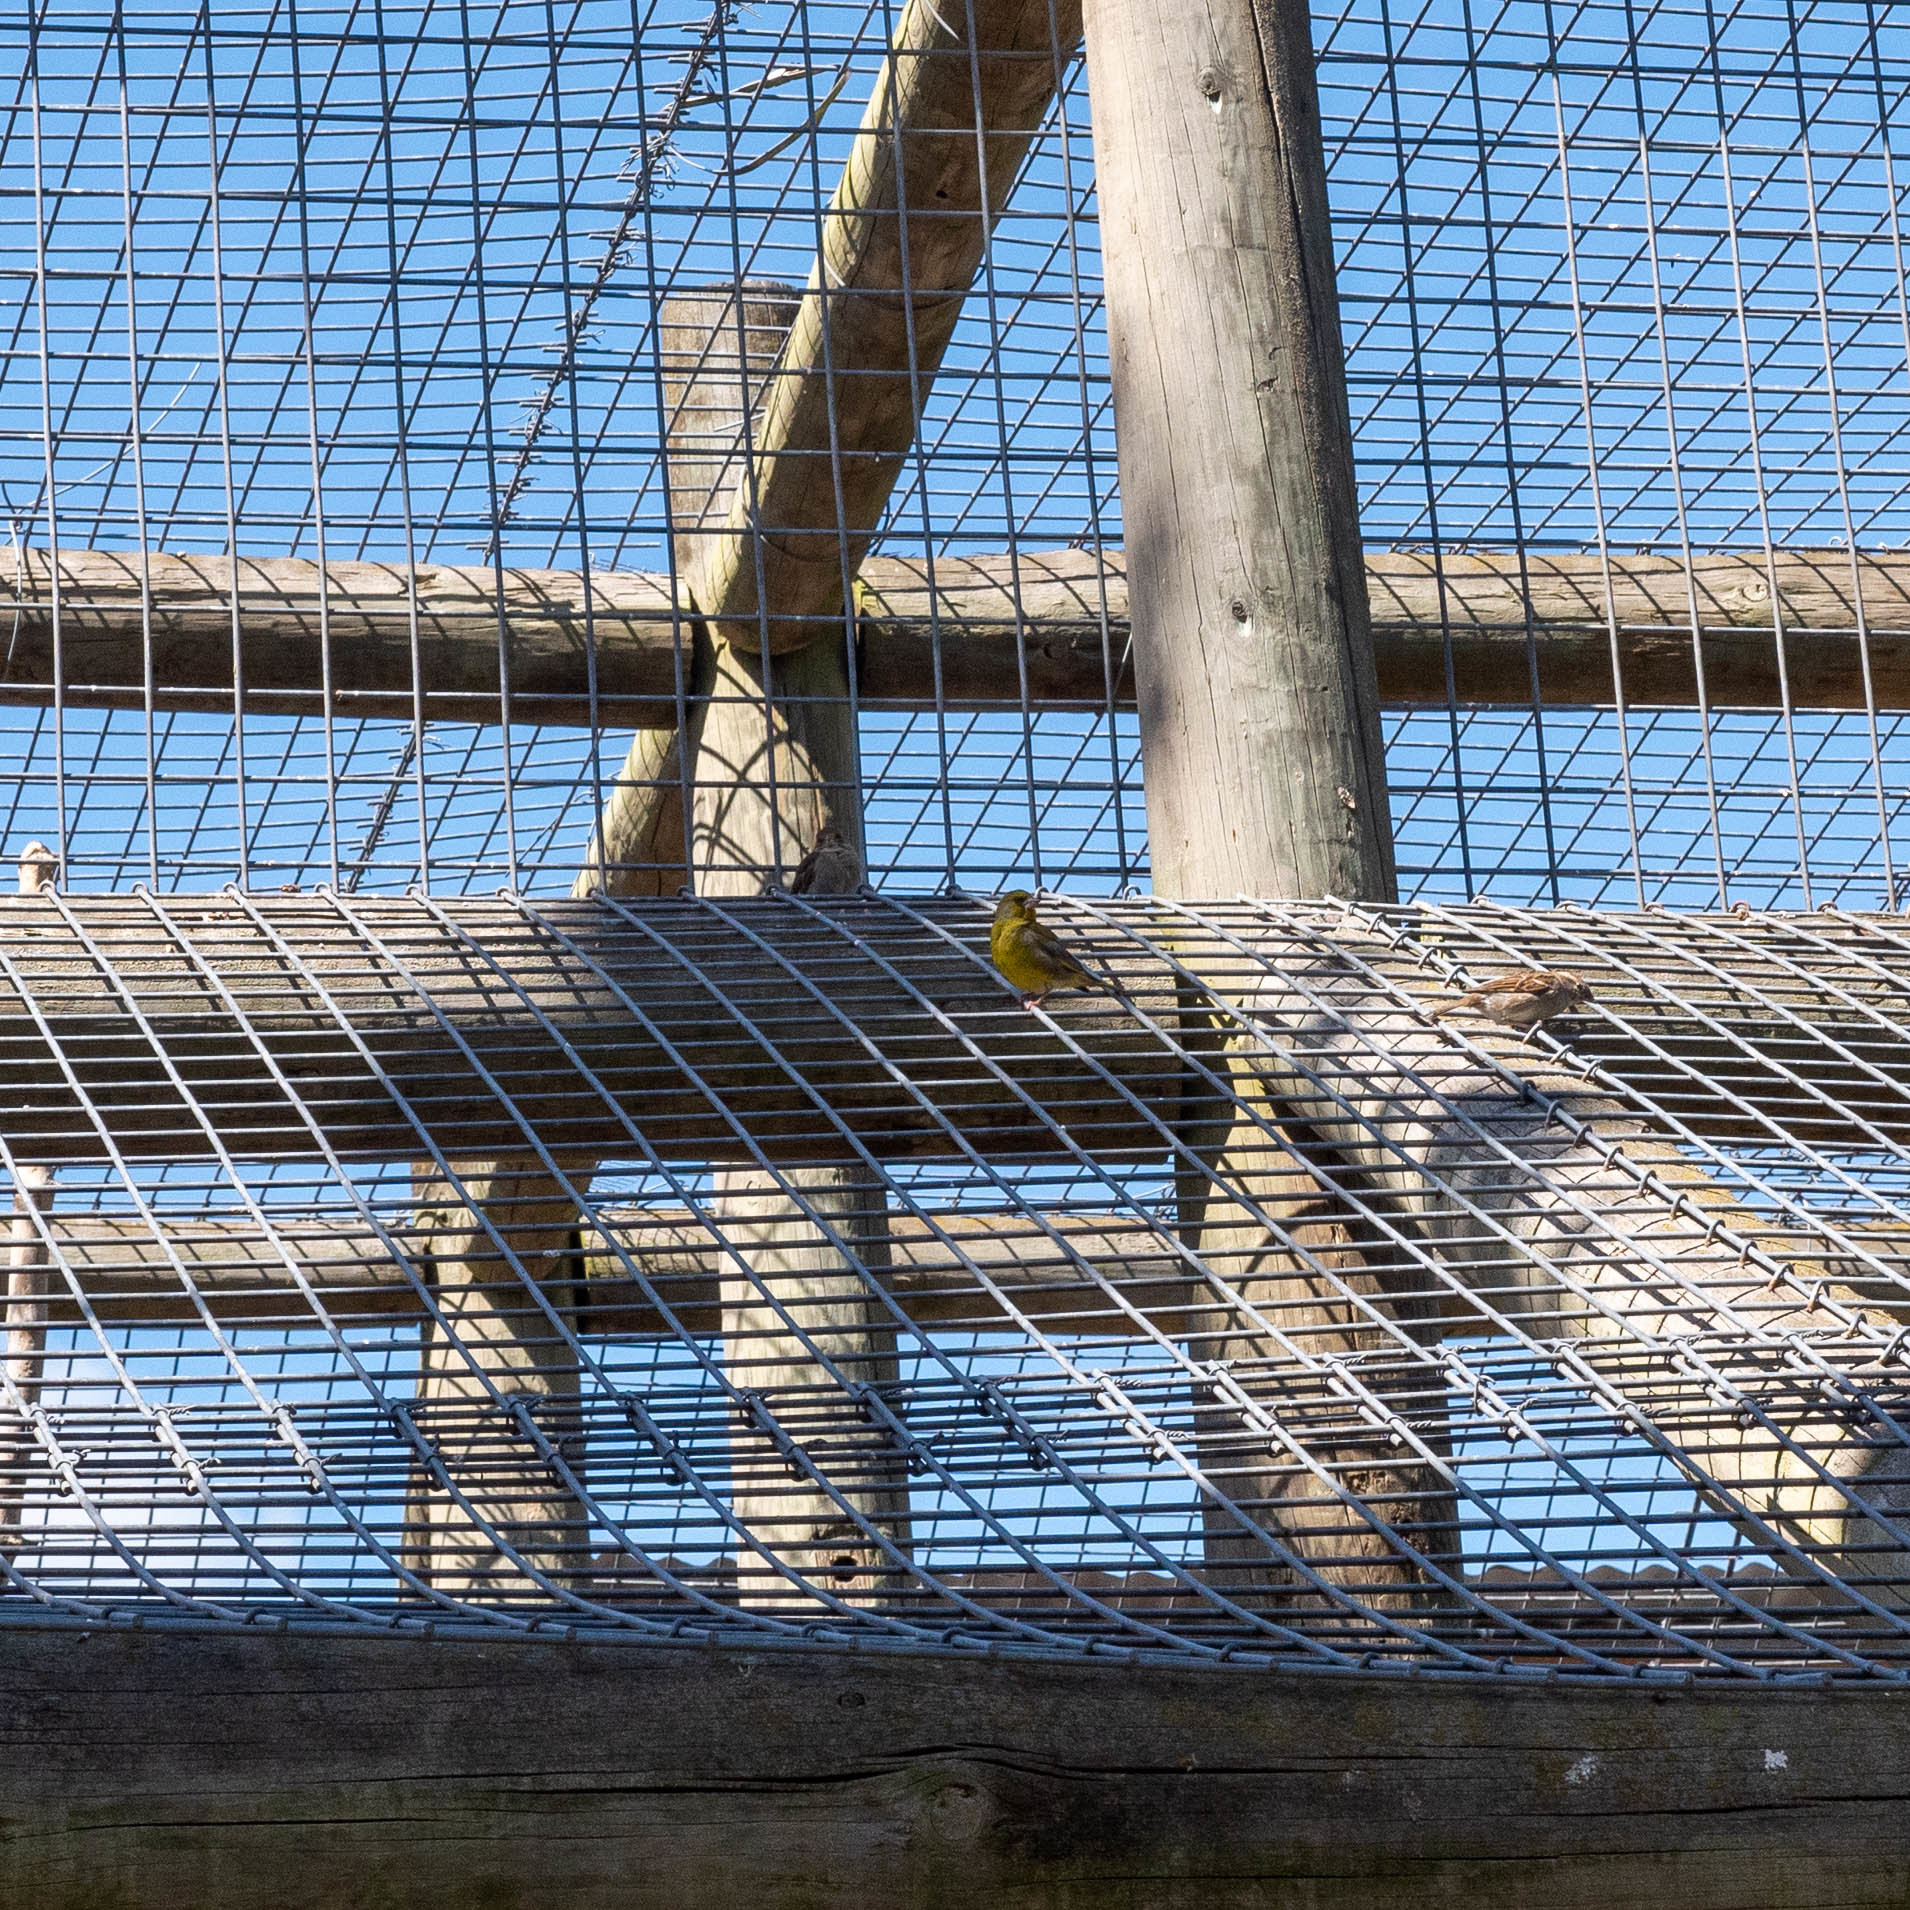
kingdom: Plantae
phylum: Tracheophyta
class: Liliopsida
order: Poales
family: Poaceae
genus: Chloris
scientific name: Chloris chloris
